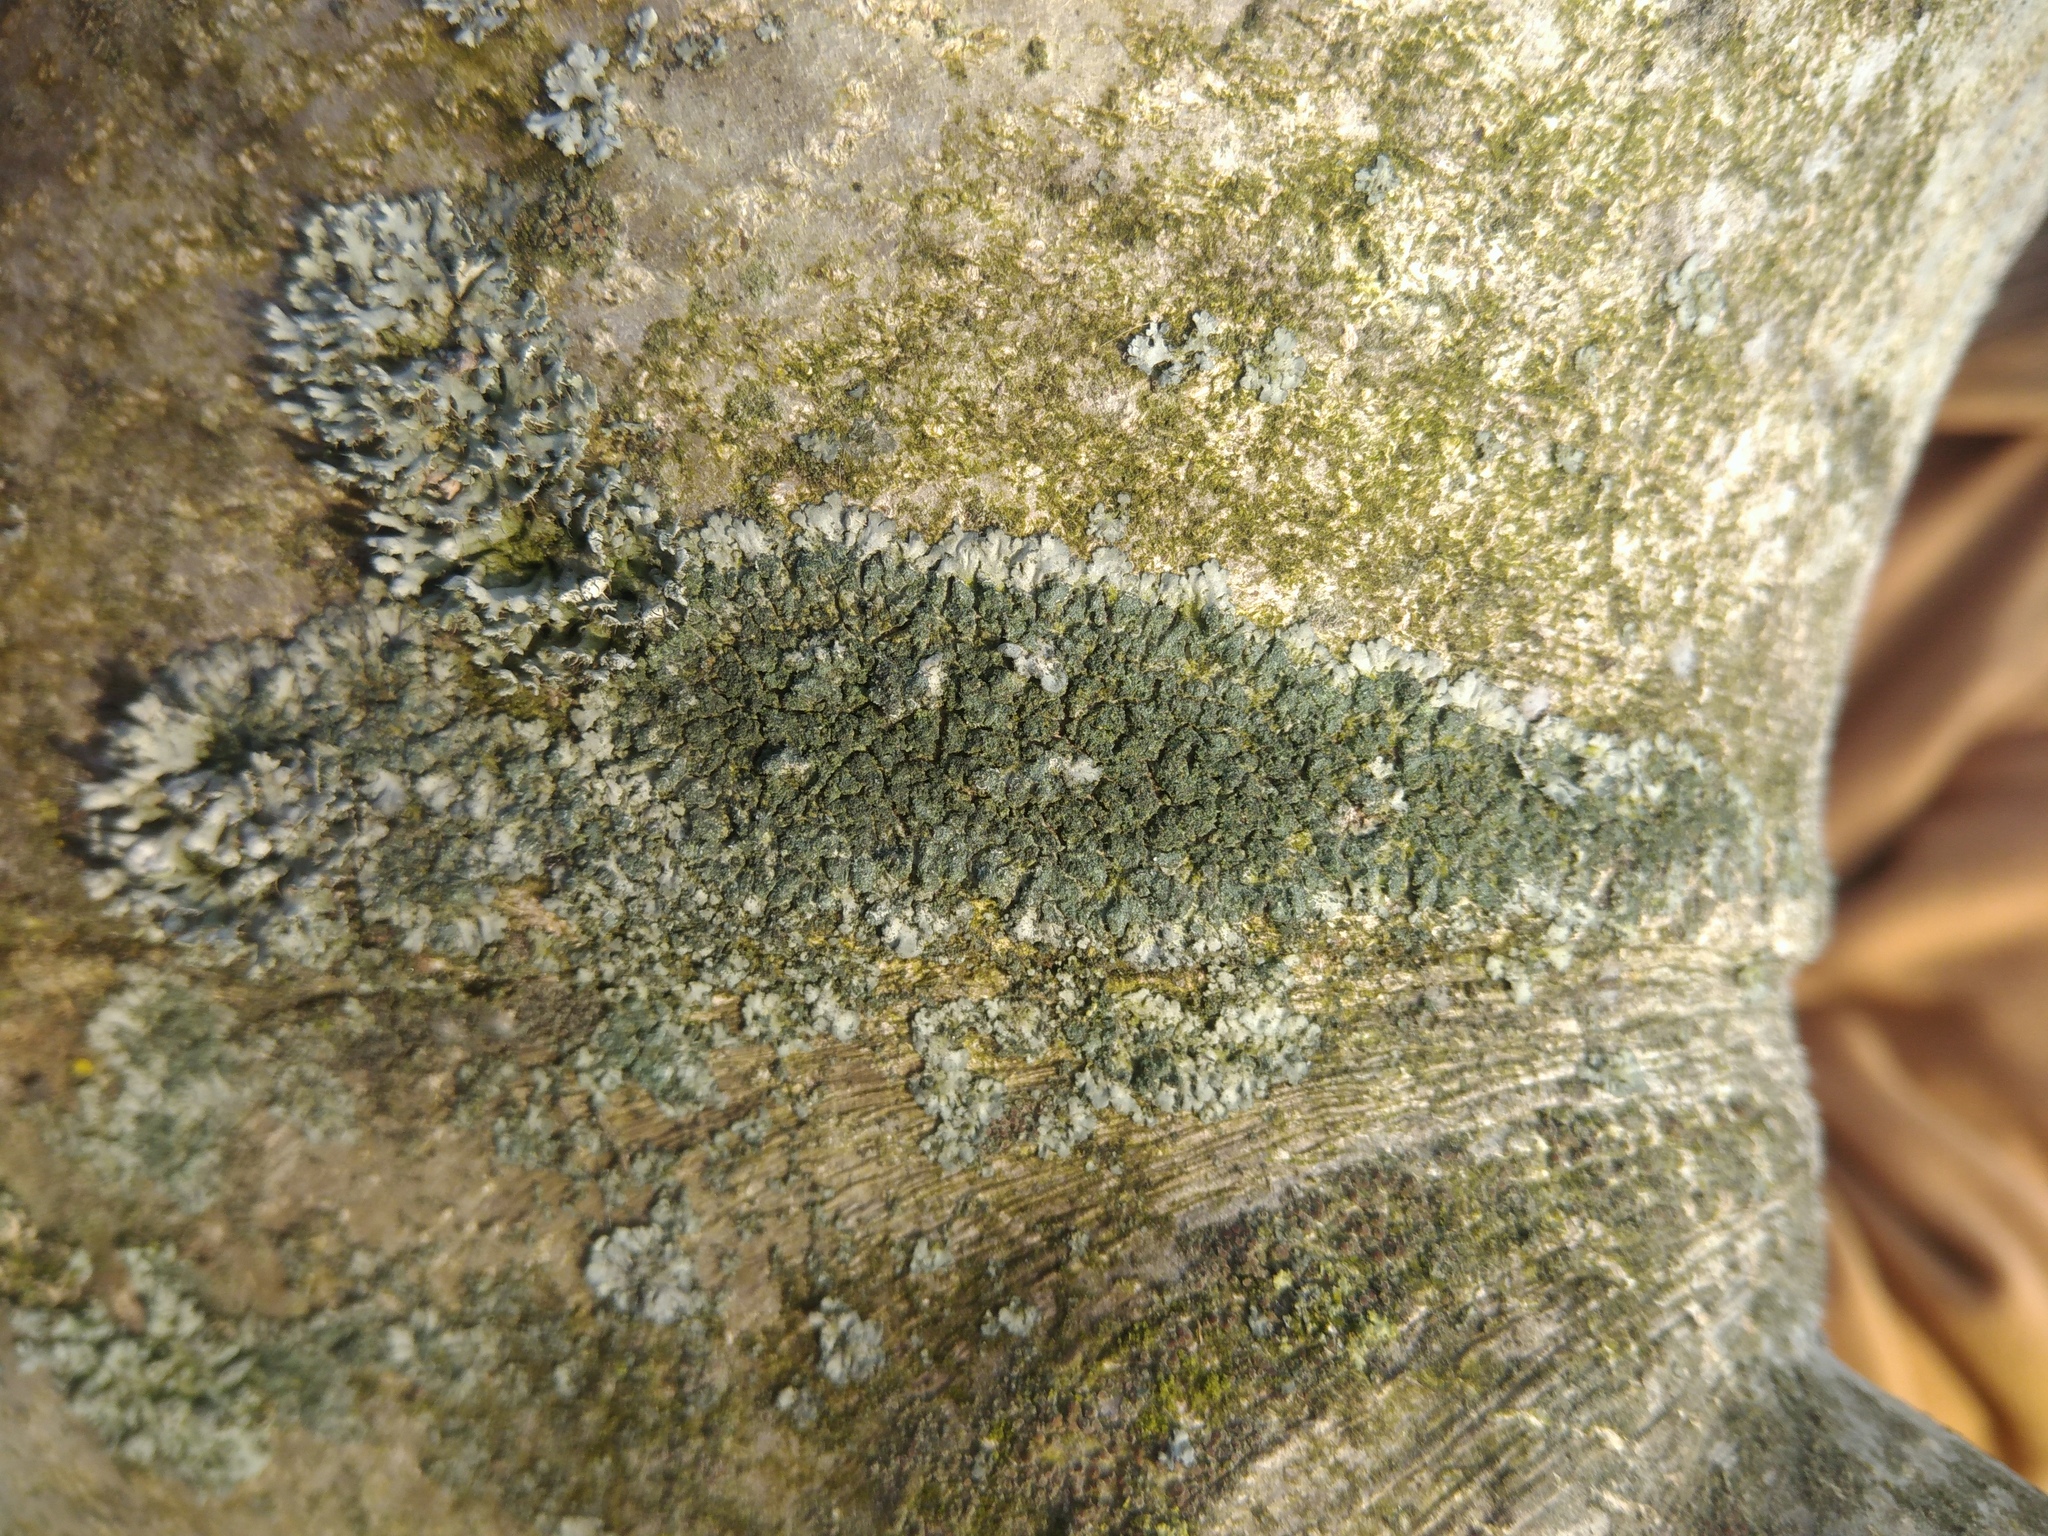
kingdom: Fungi
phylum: Ascomycota
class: Lecanoromycetes
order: Caliciales
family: Physciaceae
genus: Phaeophyscia
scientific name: Phaeophyscia orbicularis
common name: Mealy shadow lichen
